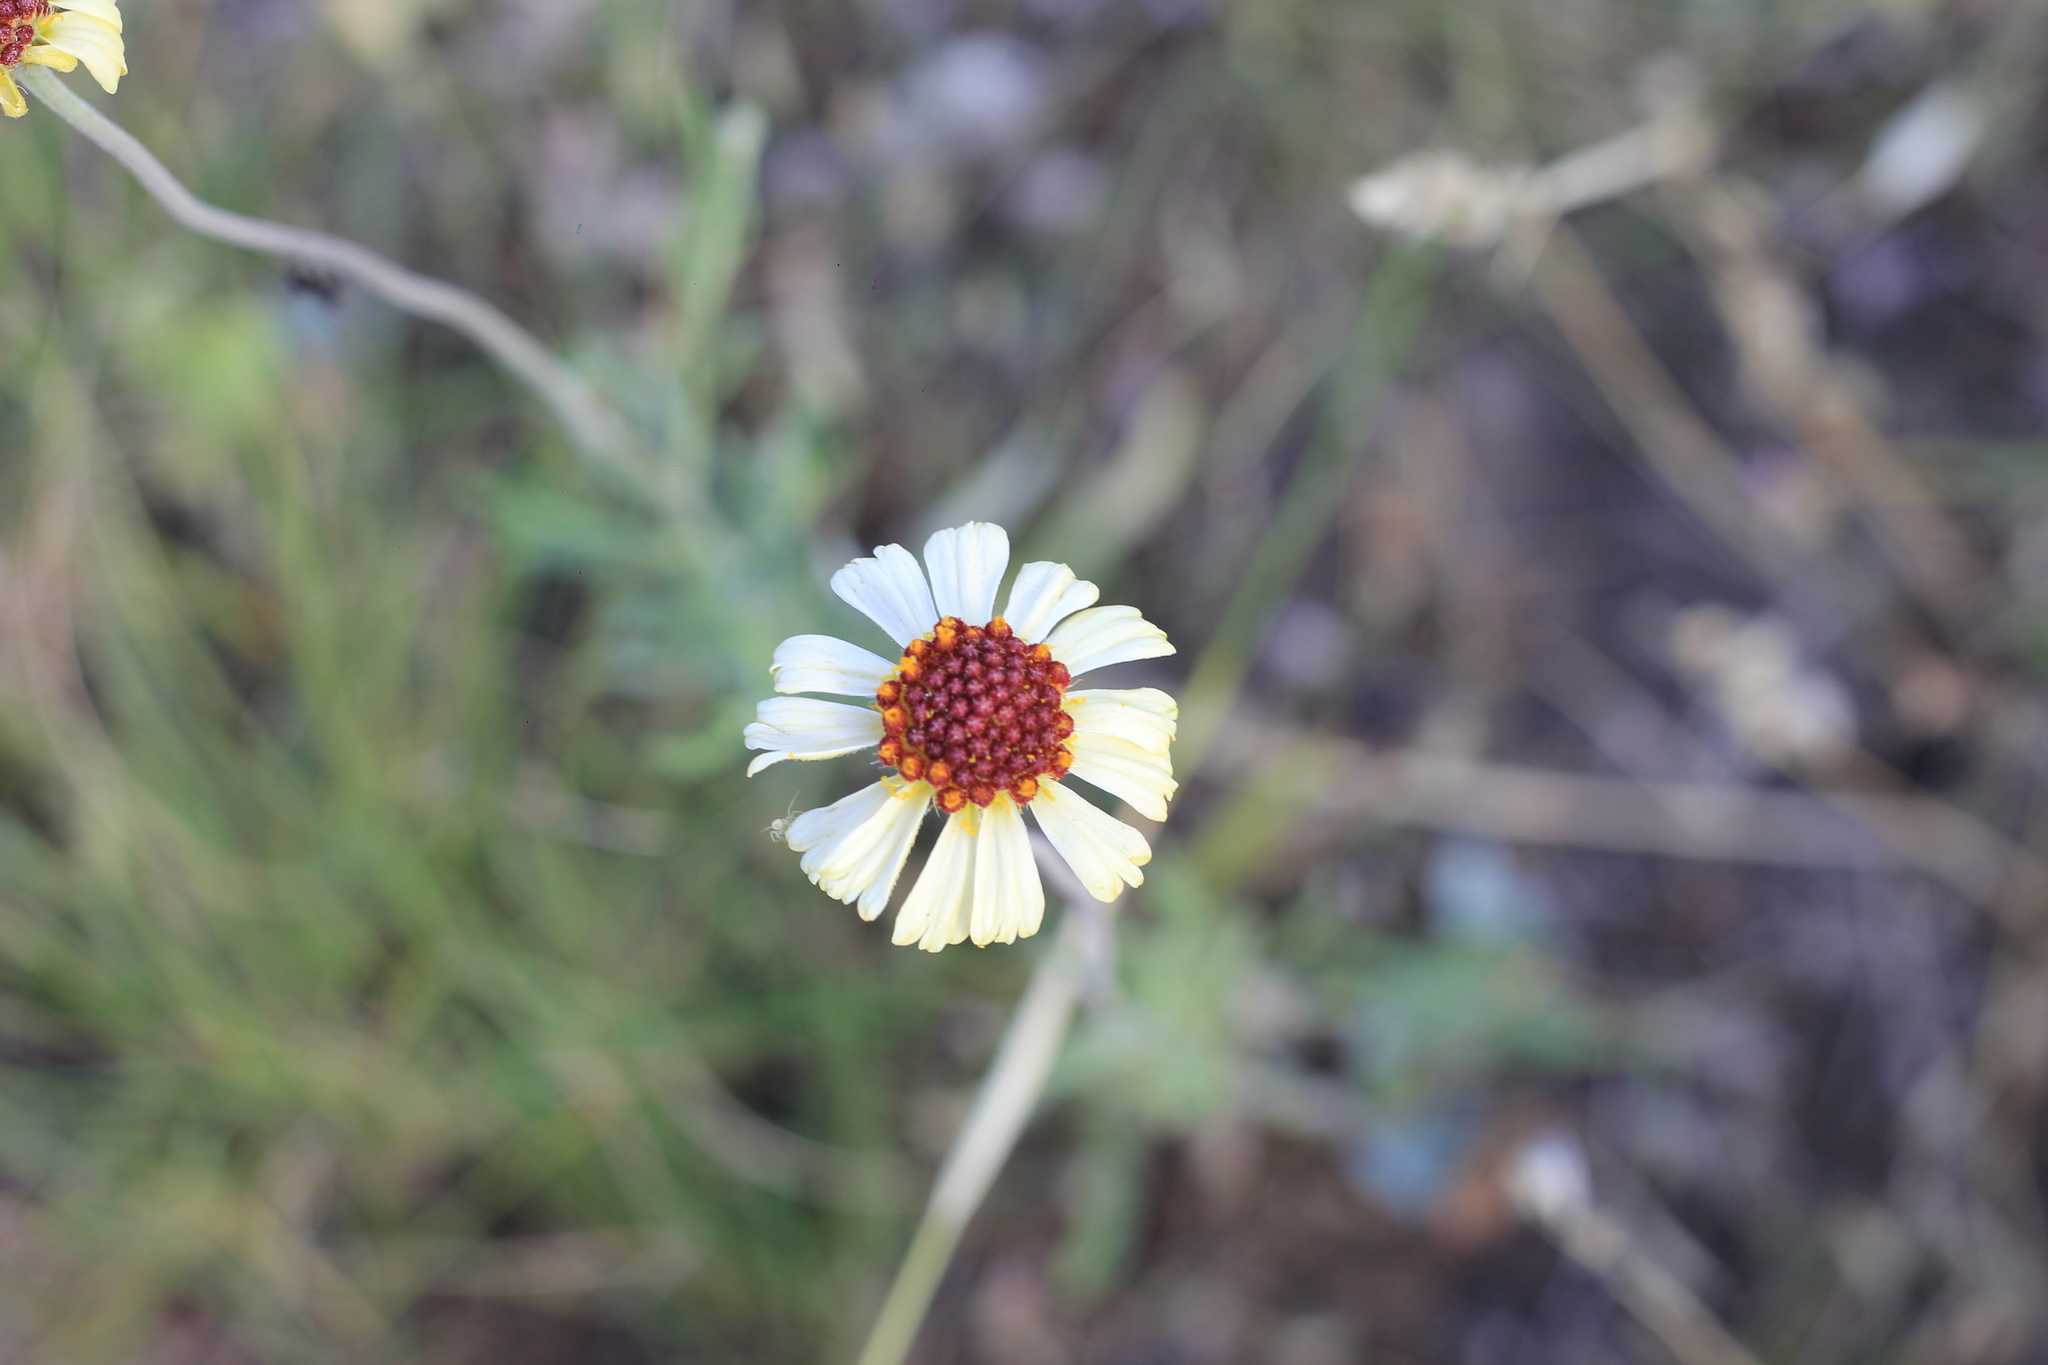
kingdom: Plantae
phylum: Tracheophyta
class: Magnoliopsida
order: Asterales
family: Asteraceae
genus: Helenium
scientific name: Helenium uniflorum
